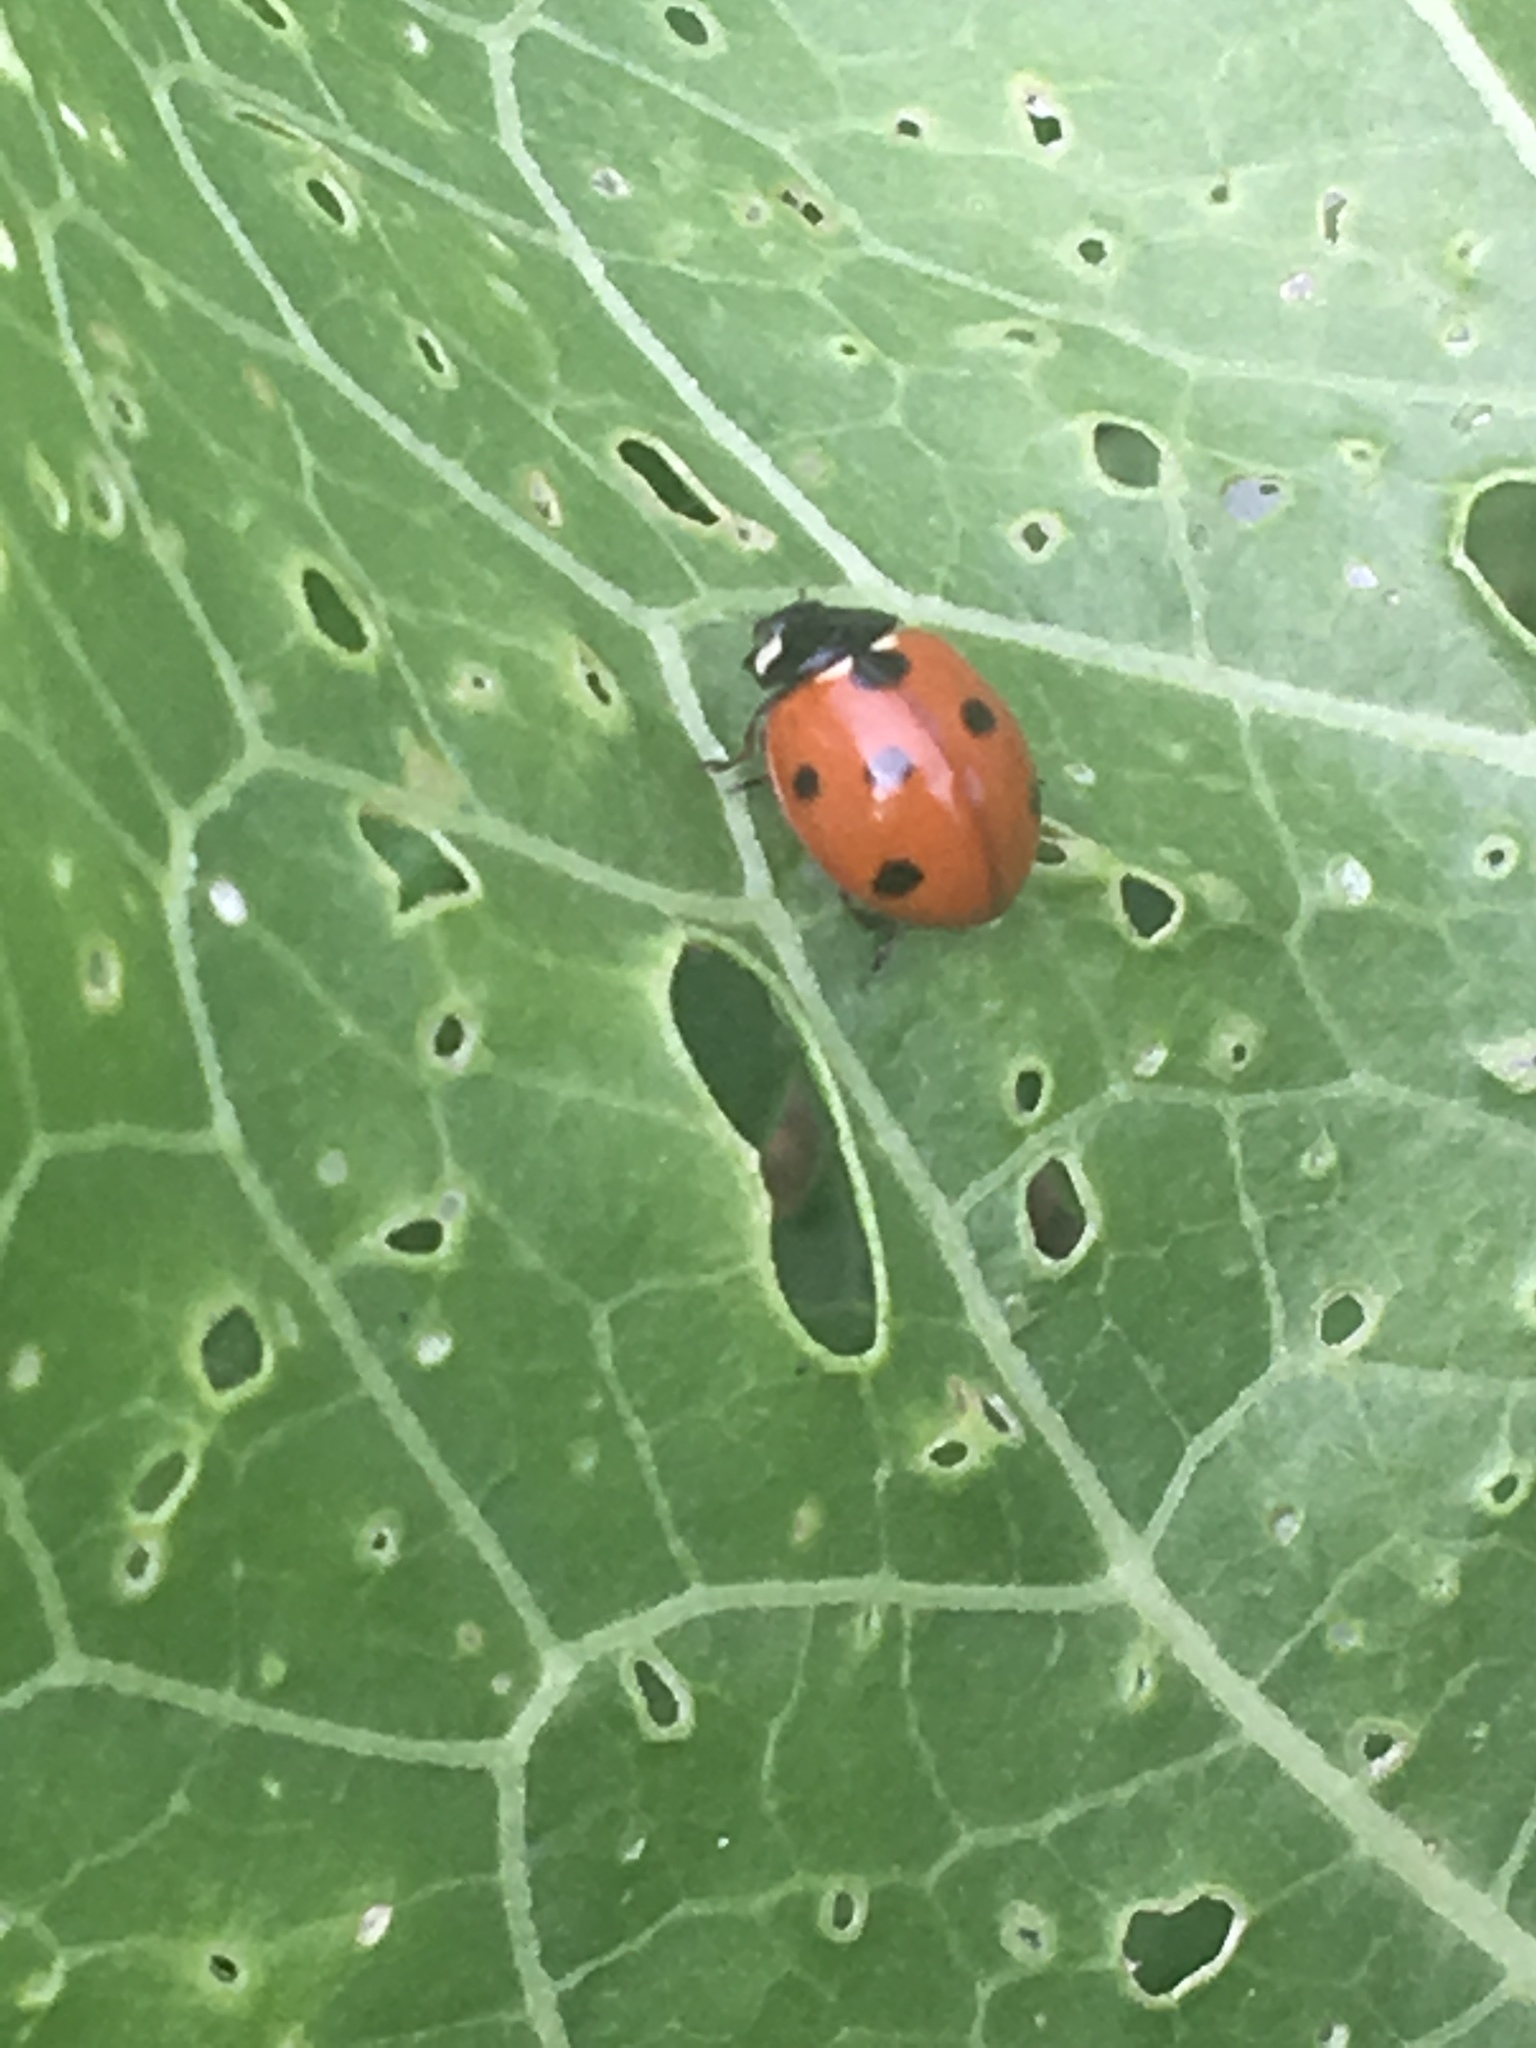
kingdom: Animalia
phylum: Arthropoda
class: Insecta
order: Coleoptera
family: Coccinellidae
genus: Coccinella
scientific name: Coccinella septempunctata
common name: Sevenspotted lady beetle
